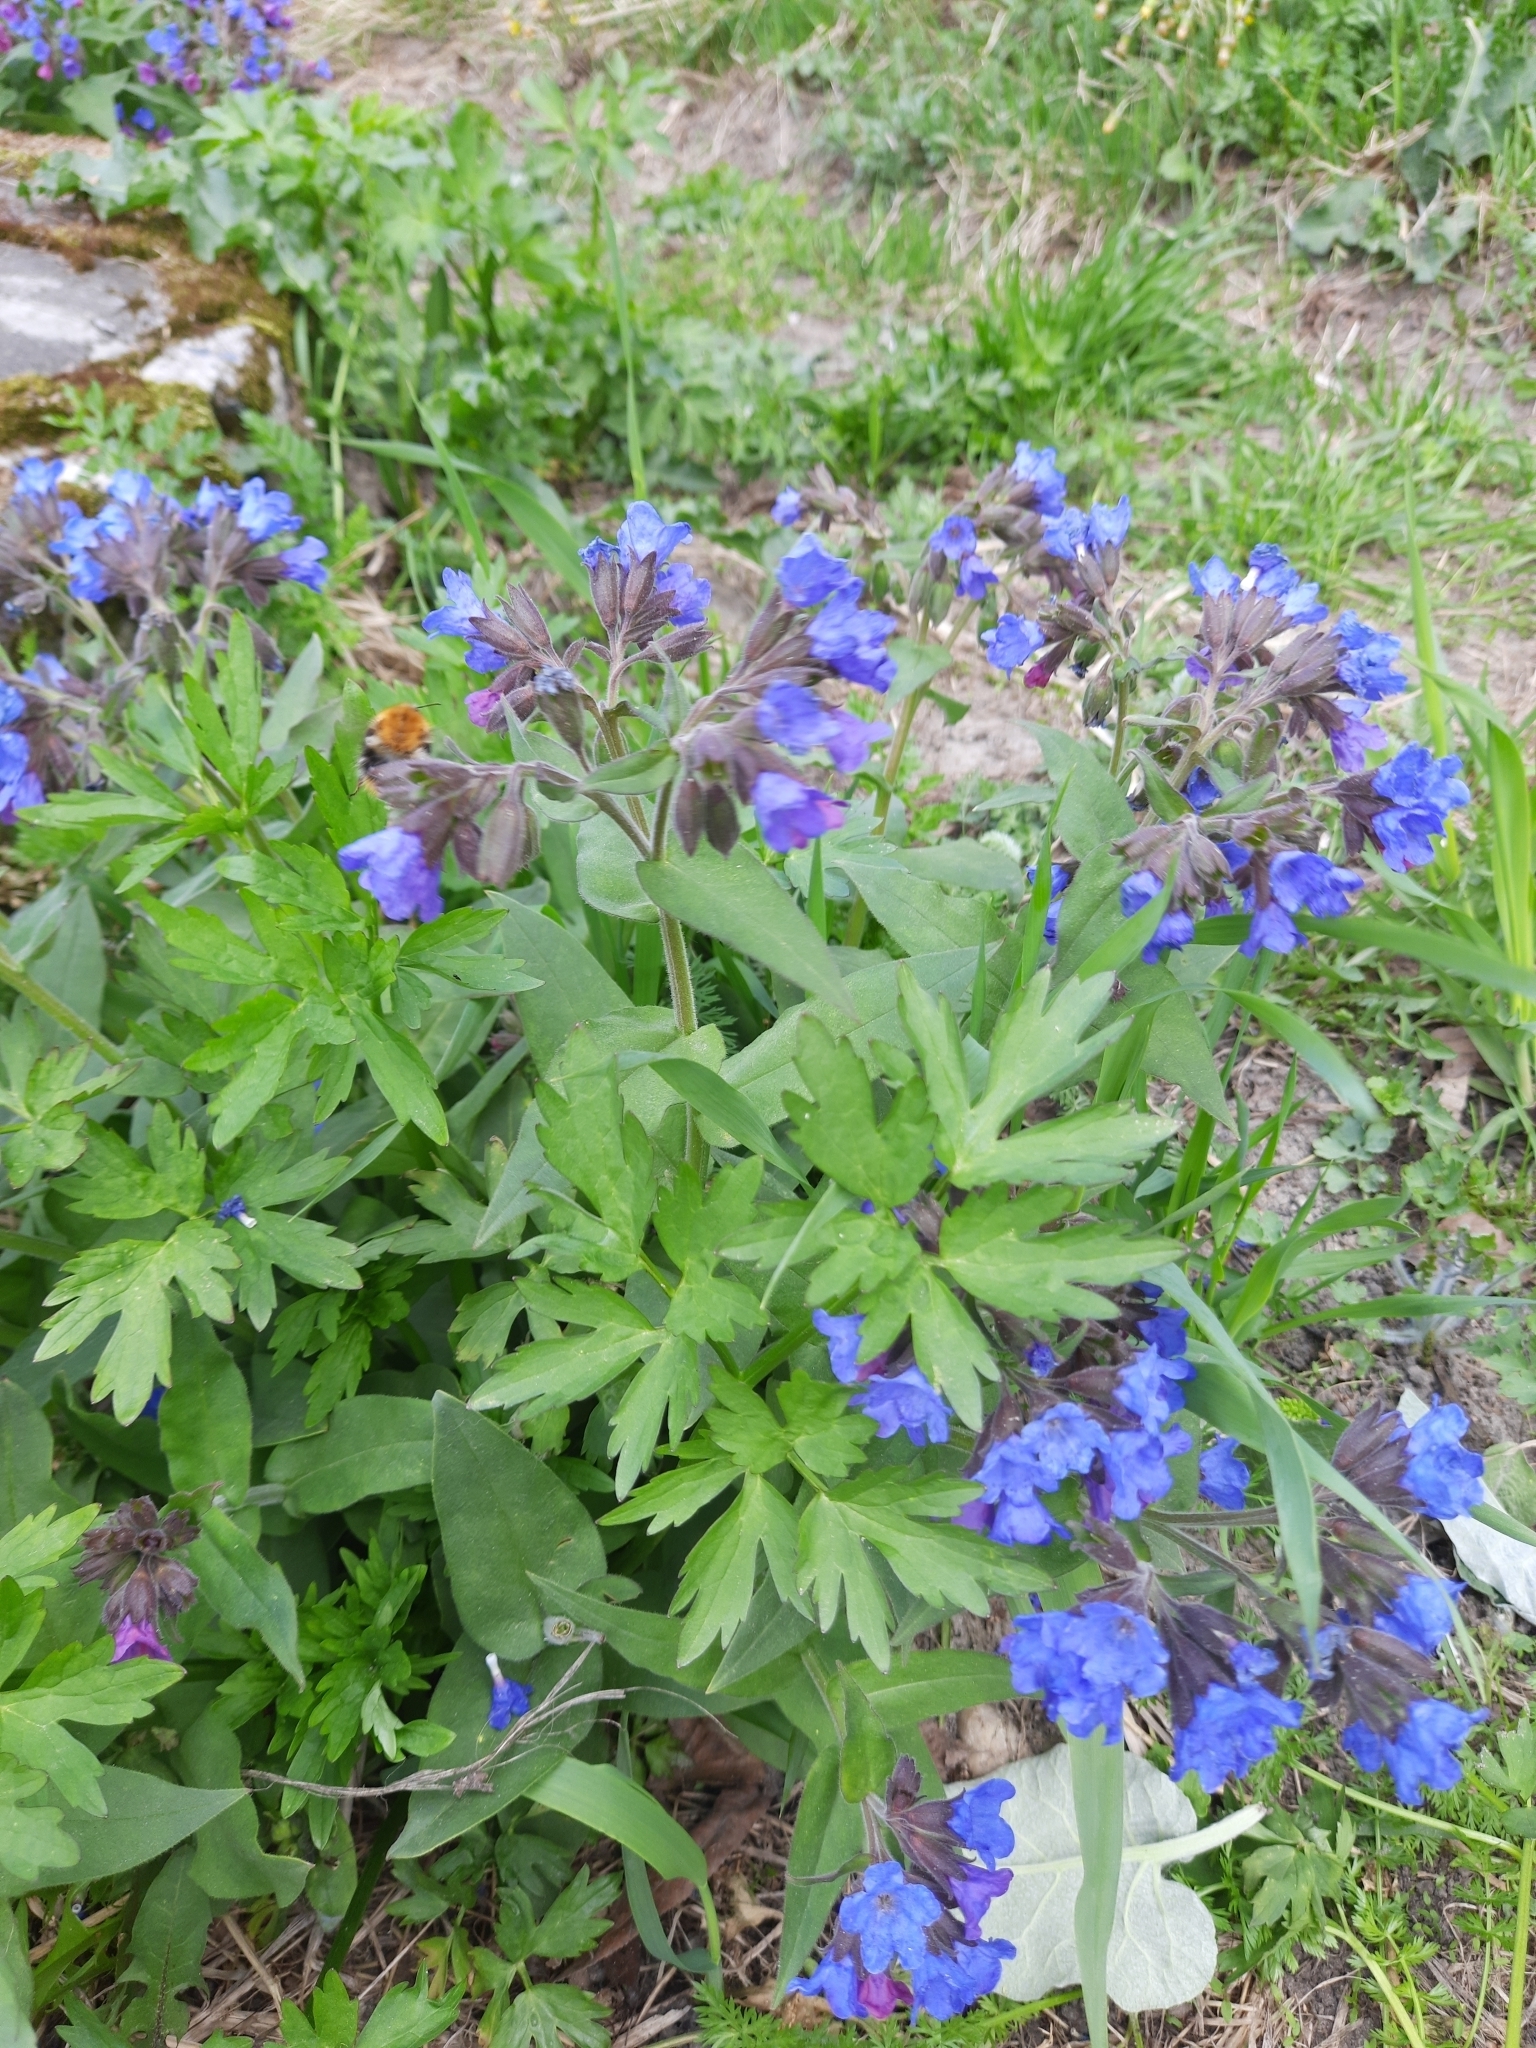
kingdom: Plantae
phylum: Tracheophyta
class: Magnoliopsida
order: Ranunculales
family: Ranunculaceae
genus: Ranunculus
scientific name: Ranunculus repens
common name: Creeping buttercup
